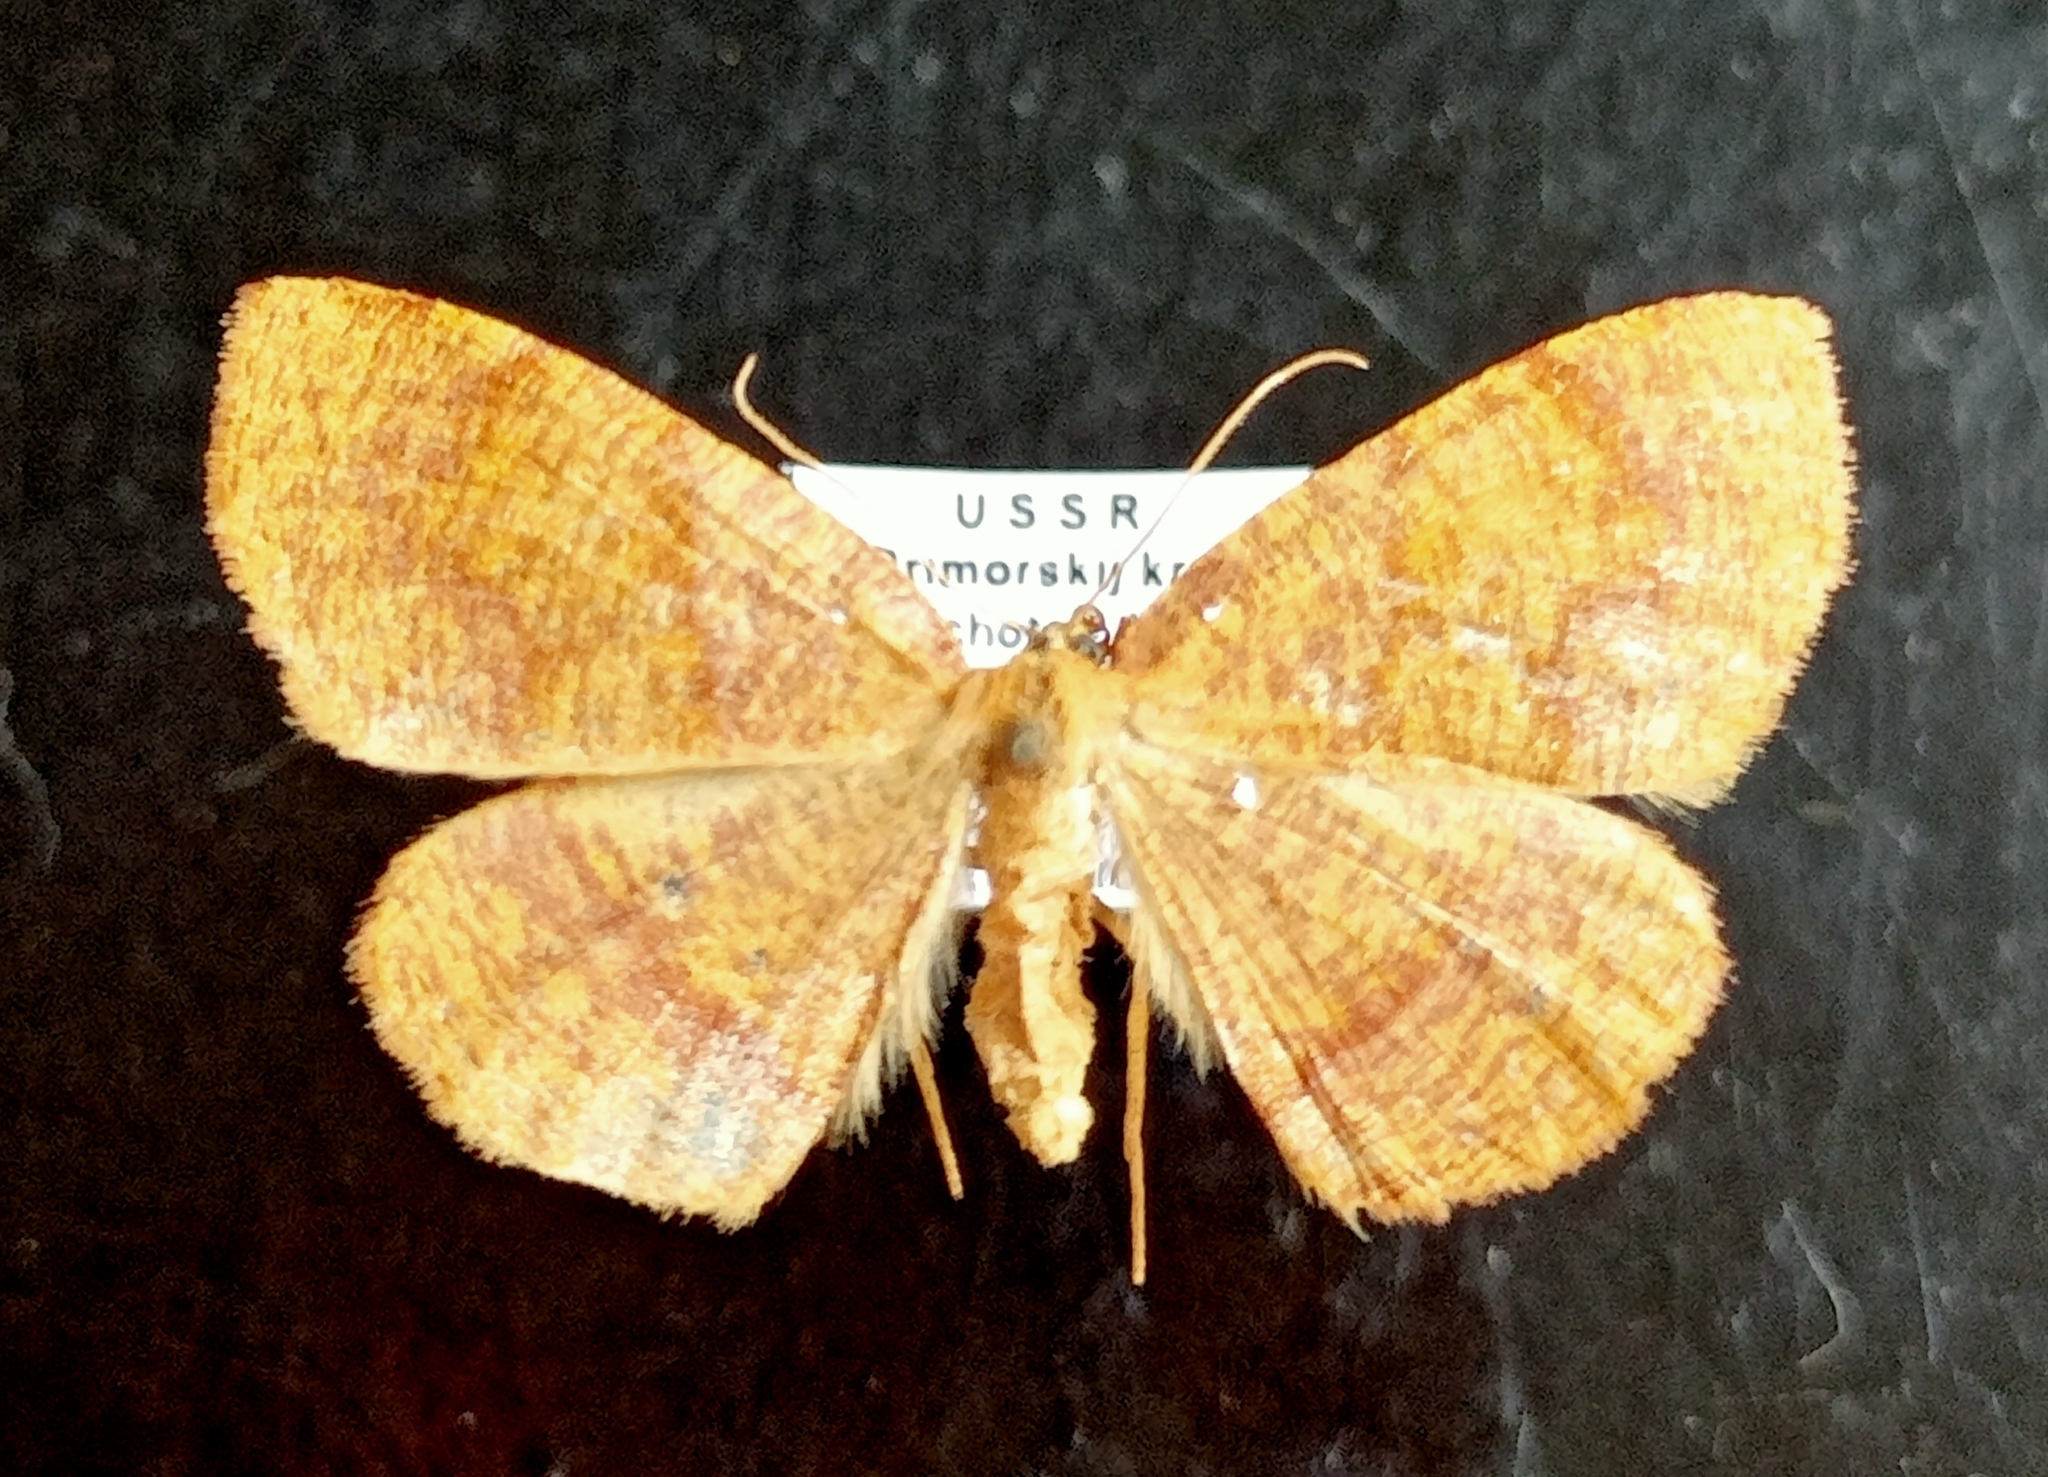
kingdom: Animalia
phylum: Arthropoda
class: Insecta
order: Lepidoptera
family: Geometridae
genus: Plagodis
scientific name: Plagodis pulveraria
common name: Barred umber
